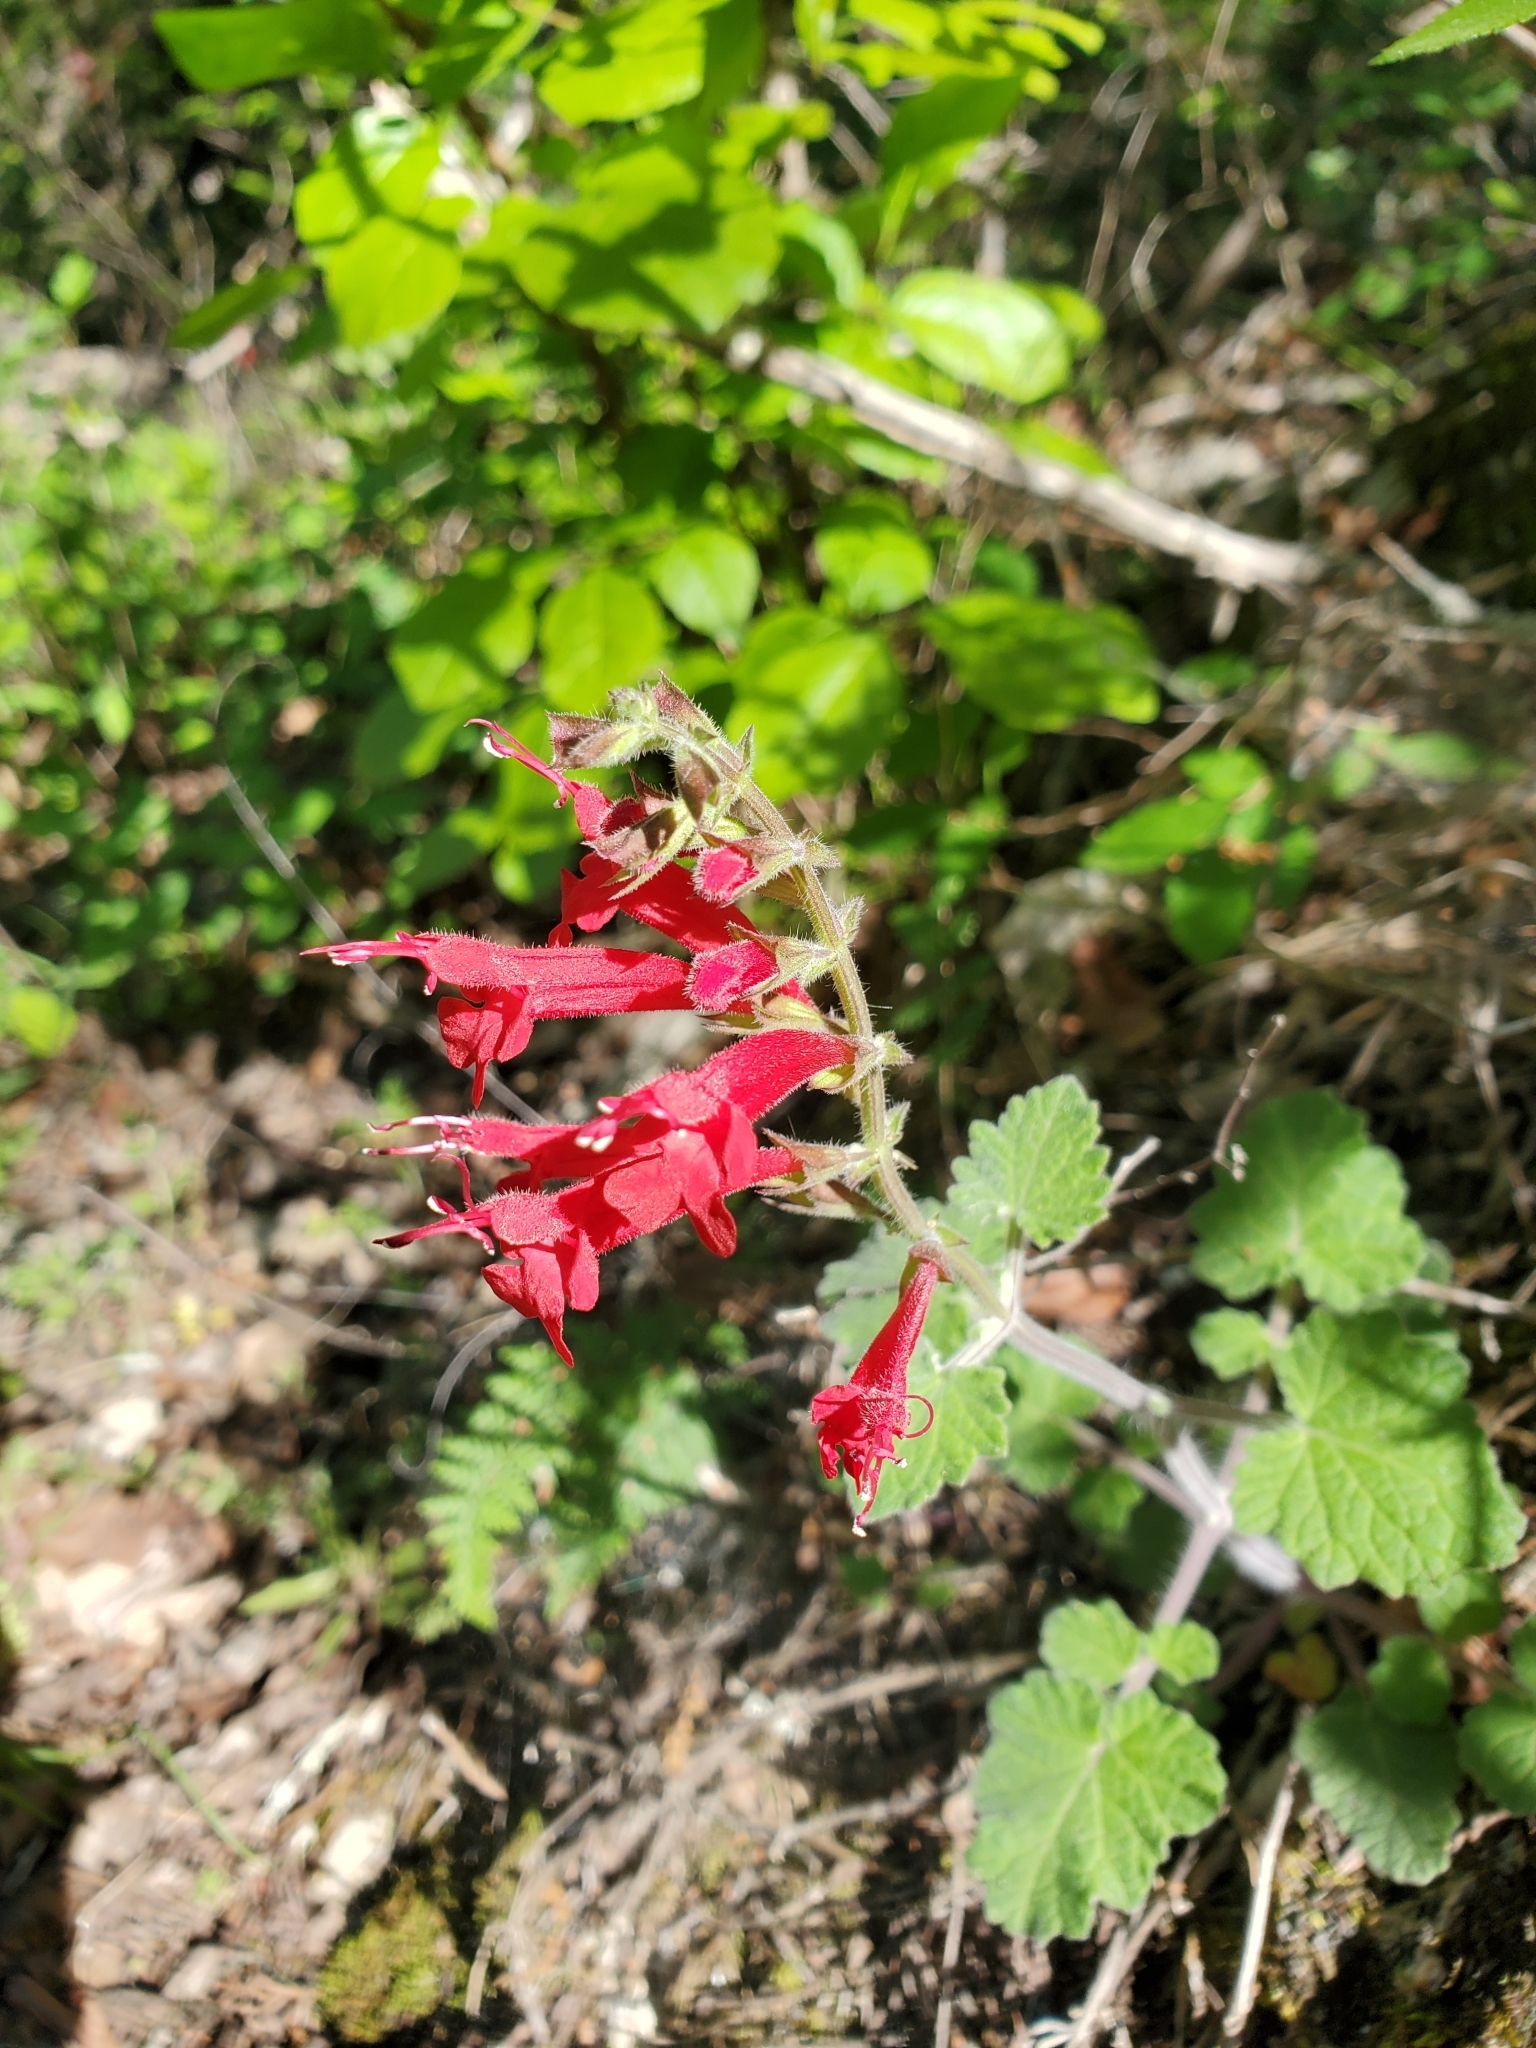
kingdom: Plantae
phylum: Tracheophyta
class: Magnoliopsida
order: Lamiales
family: Lamiaceae
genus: Salvia
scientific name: Salvia roemeriana
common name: Cedar sage
